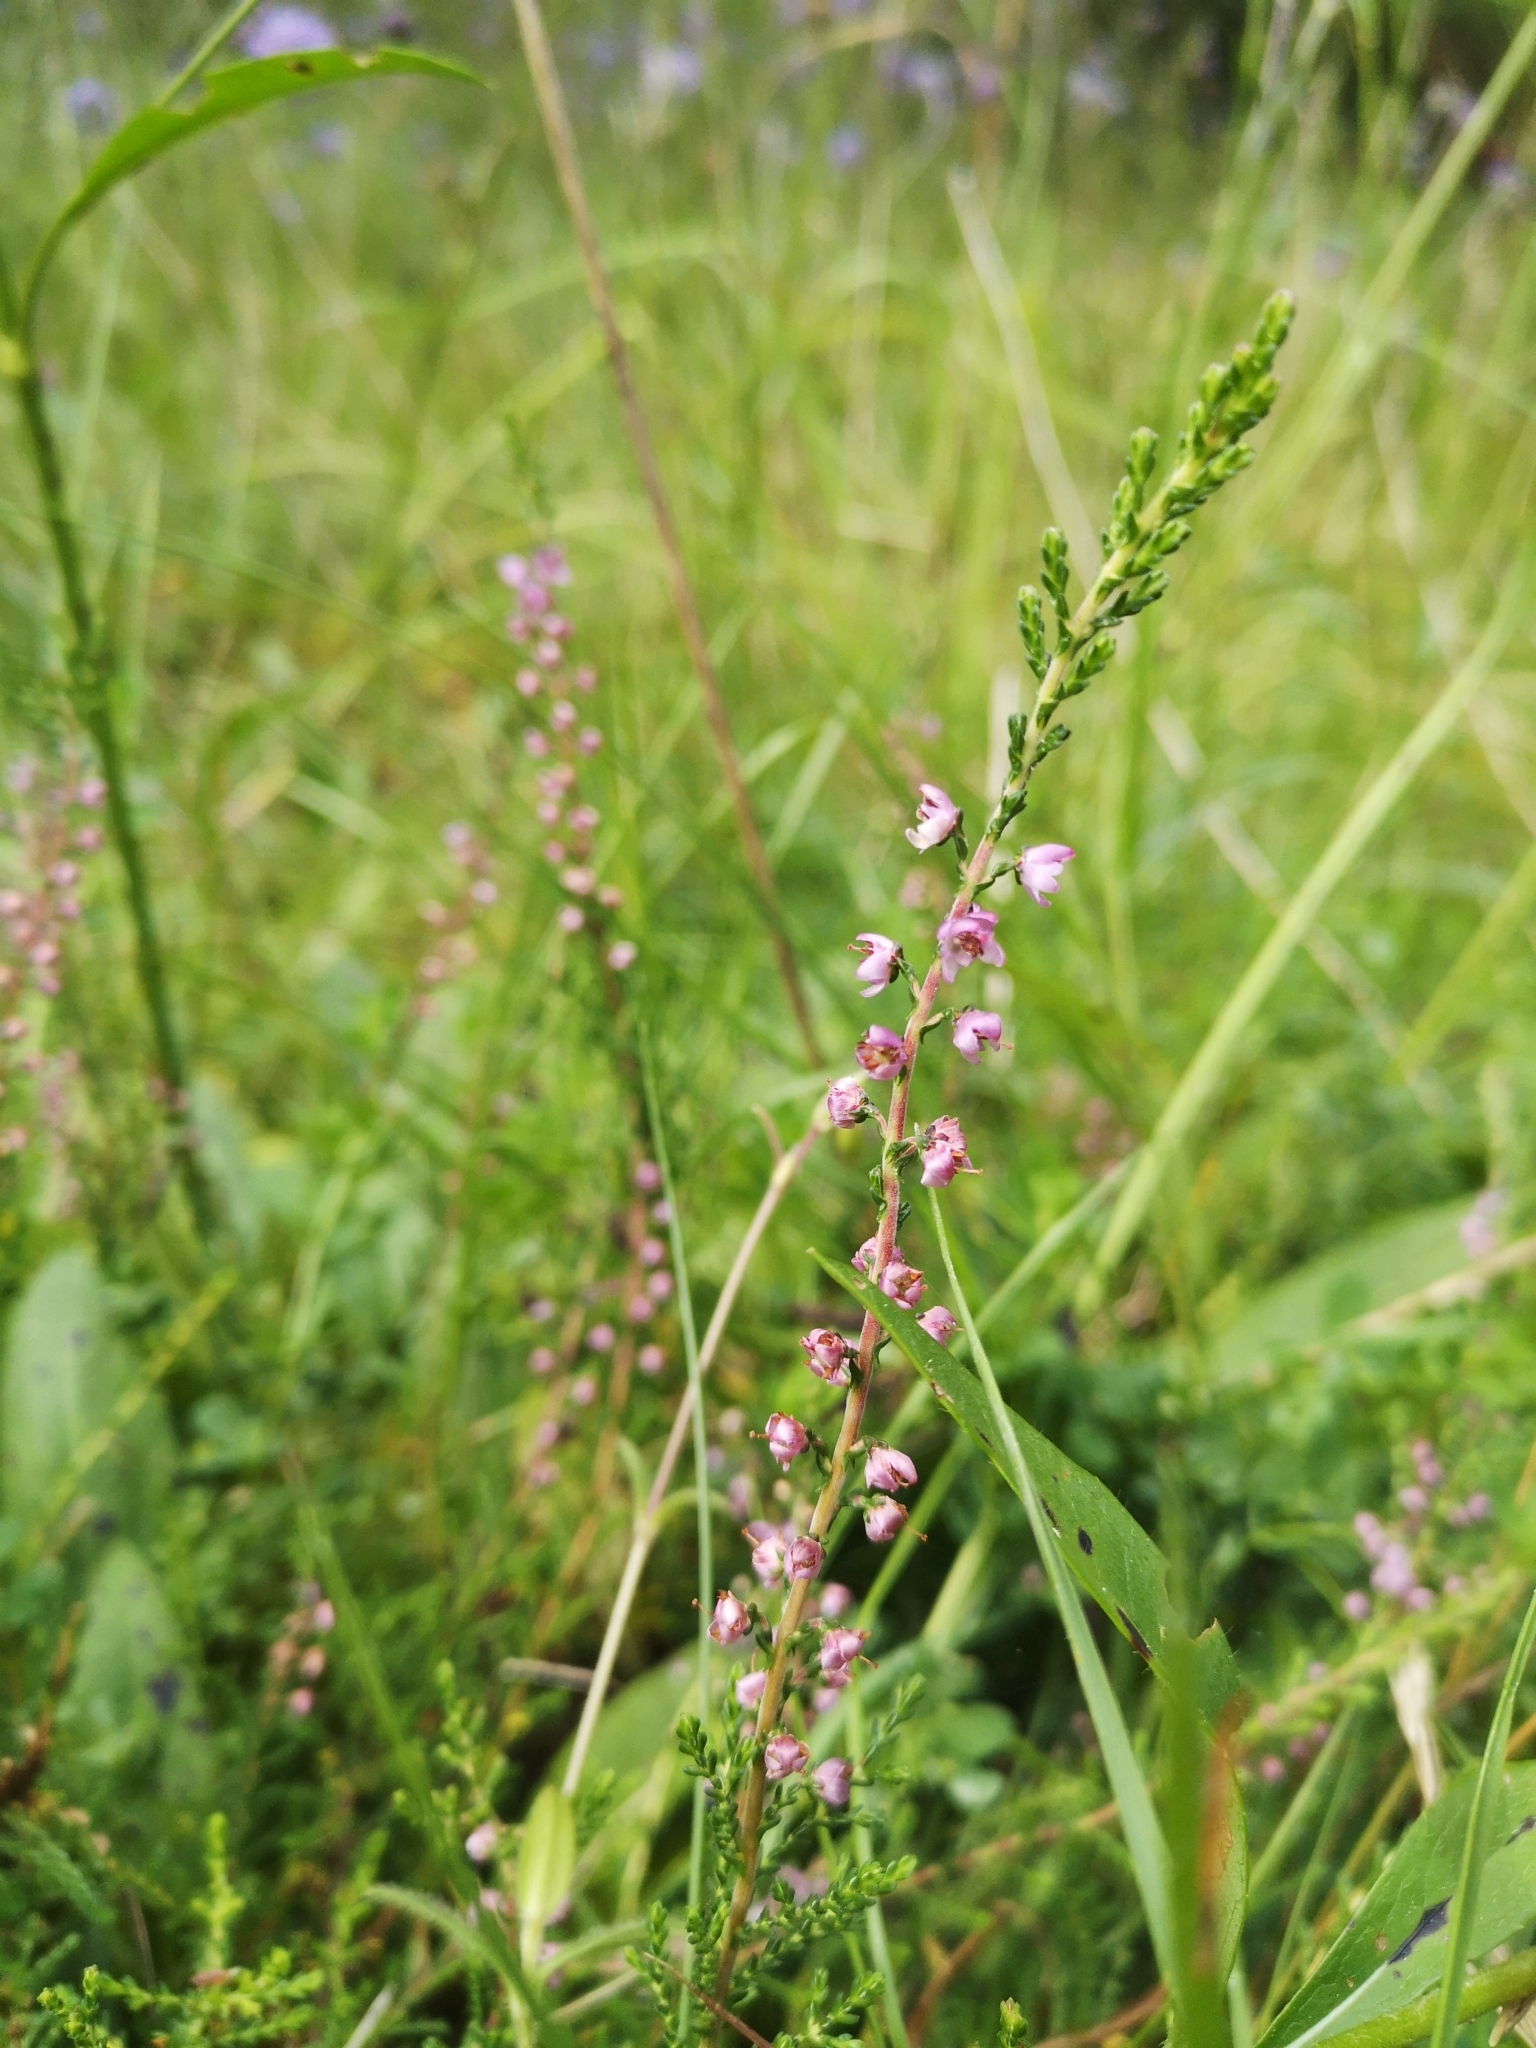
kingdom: Plantae
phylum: Tracheophyta
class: Magnoliopsida
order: Ericales
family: Ericaceae
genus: Calluna
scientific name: Calluna vulgaris
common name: Heather
